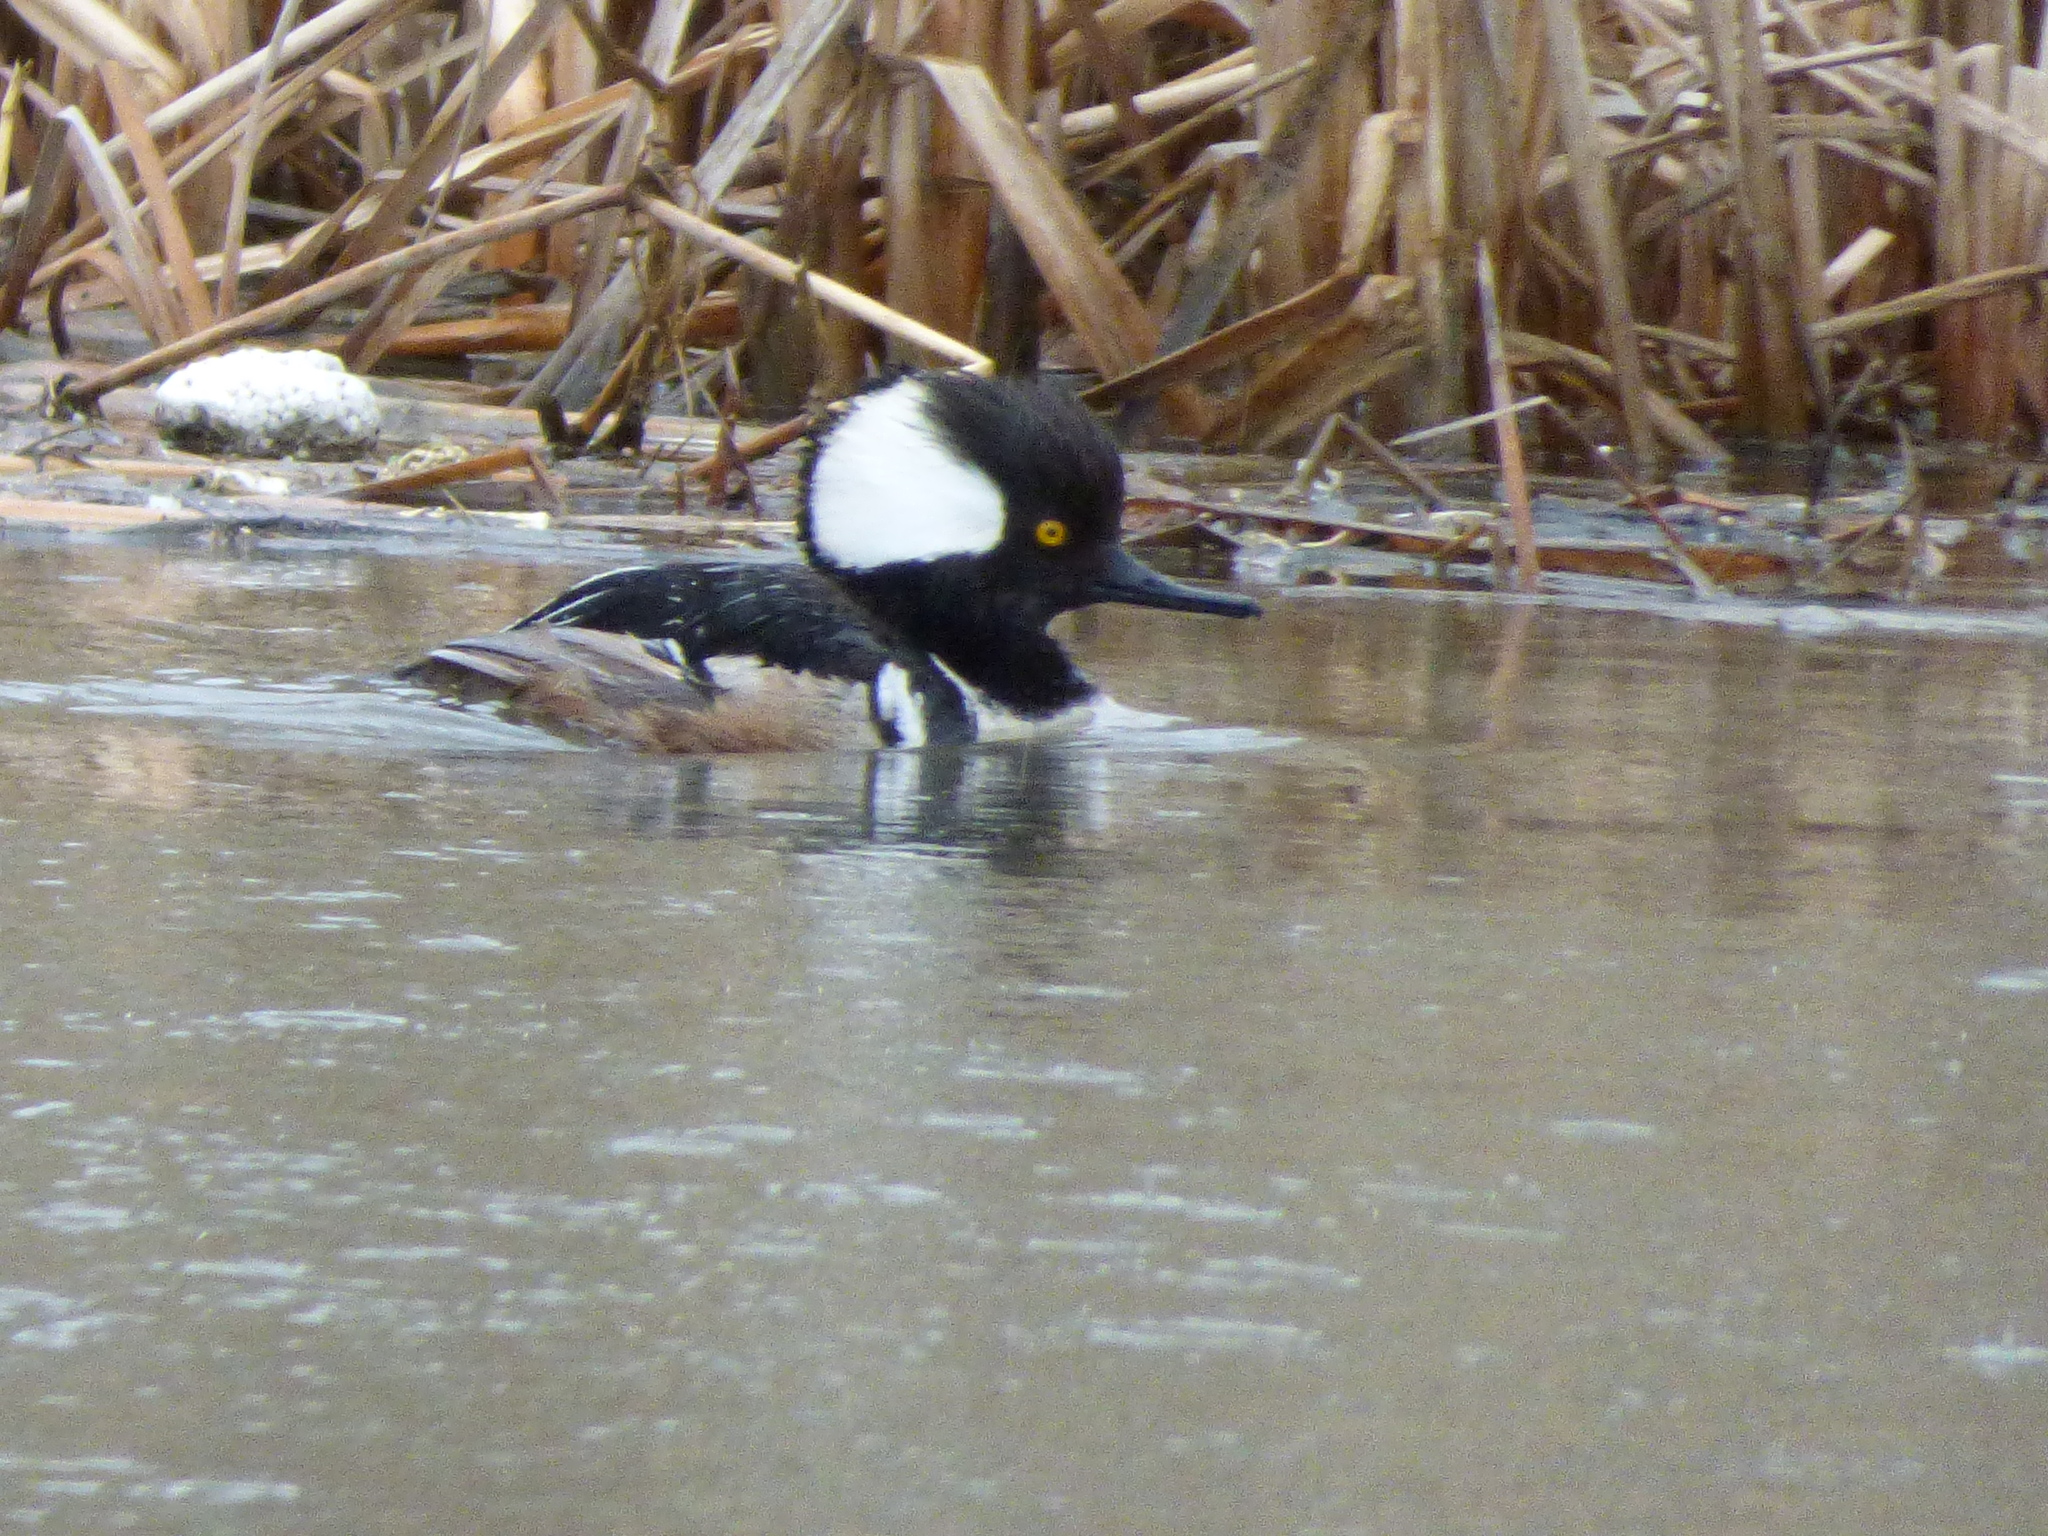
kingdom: Animalia
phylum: Chordata
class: Aves
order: Anseriformes
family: Anatidae
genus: Lophodytes
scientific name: Lophodytes cucullatus
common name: Hooded merganser
